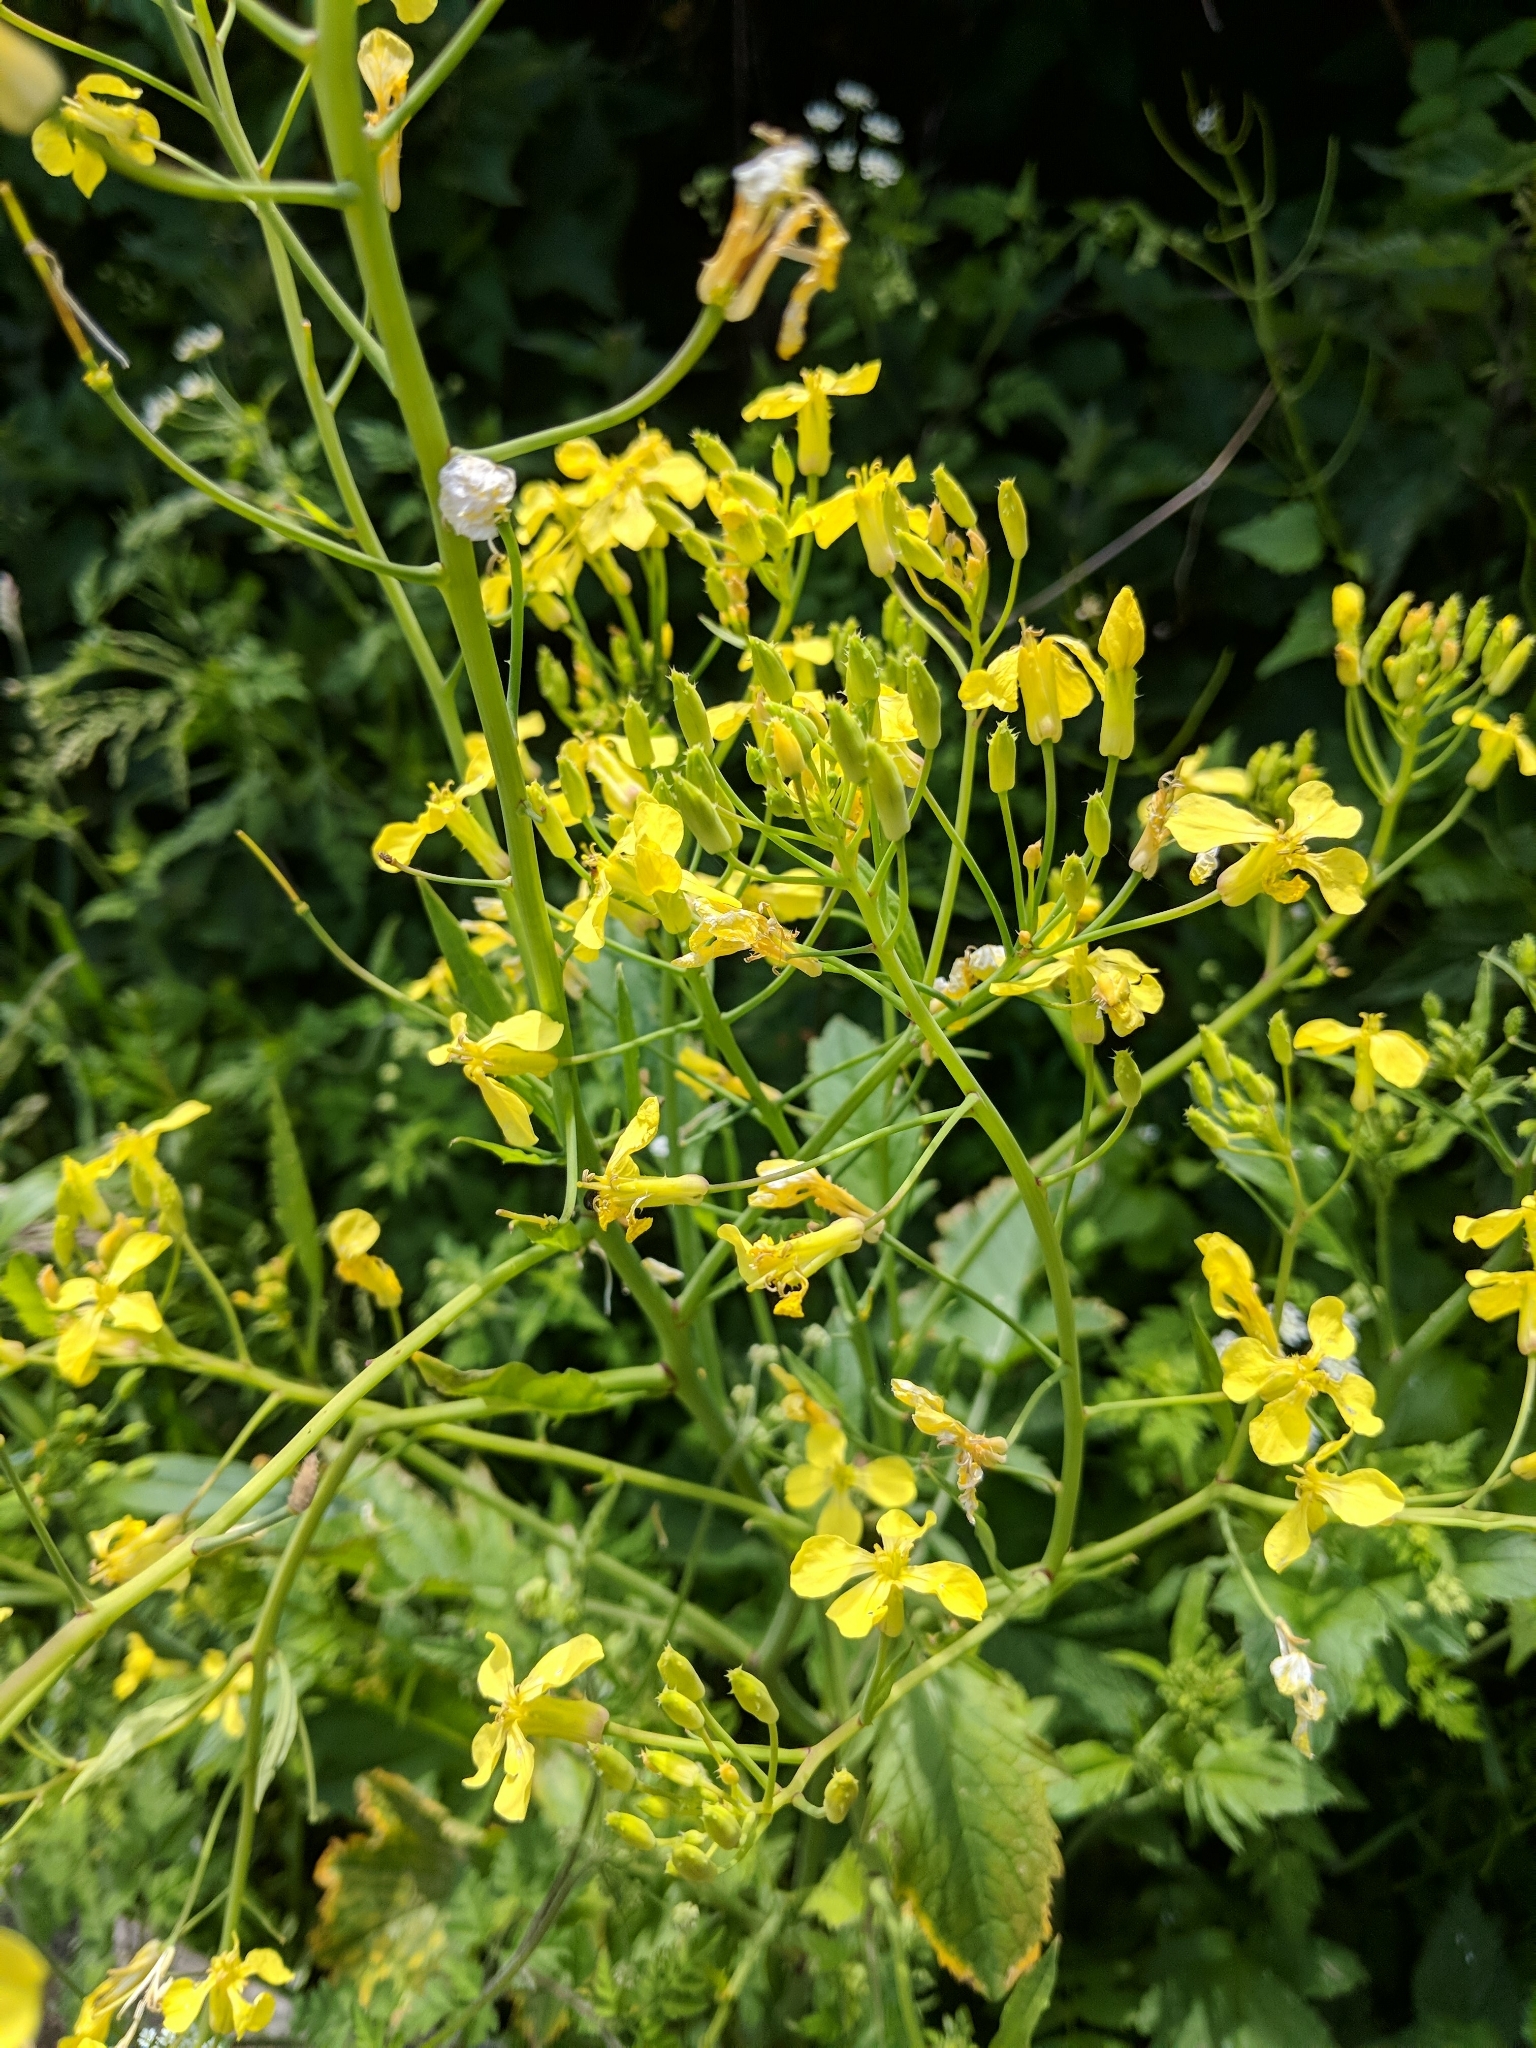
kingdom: Plantae
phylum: Tracheophyta
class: Magnoliopsida
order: Brassicales
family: Brassicaceae
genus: Raphanus
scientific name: Raphanus raphanistrum
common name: Wild radish
